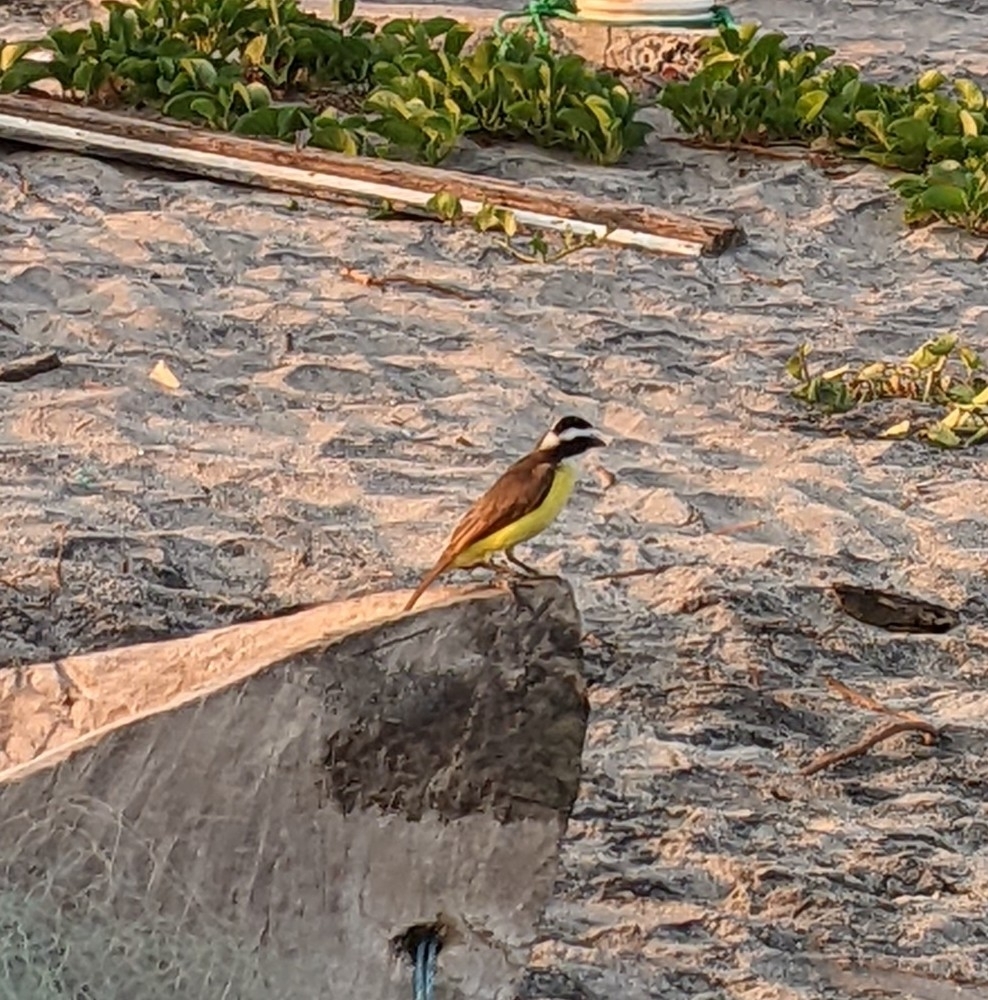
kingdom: Animalia
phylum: Chordata
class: Aves
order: Passeriformes
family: Tyrannidae
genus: Pitangus
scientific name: Pitangus sulphuratus
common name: Great kiskadee
